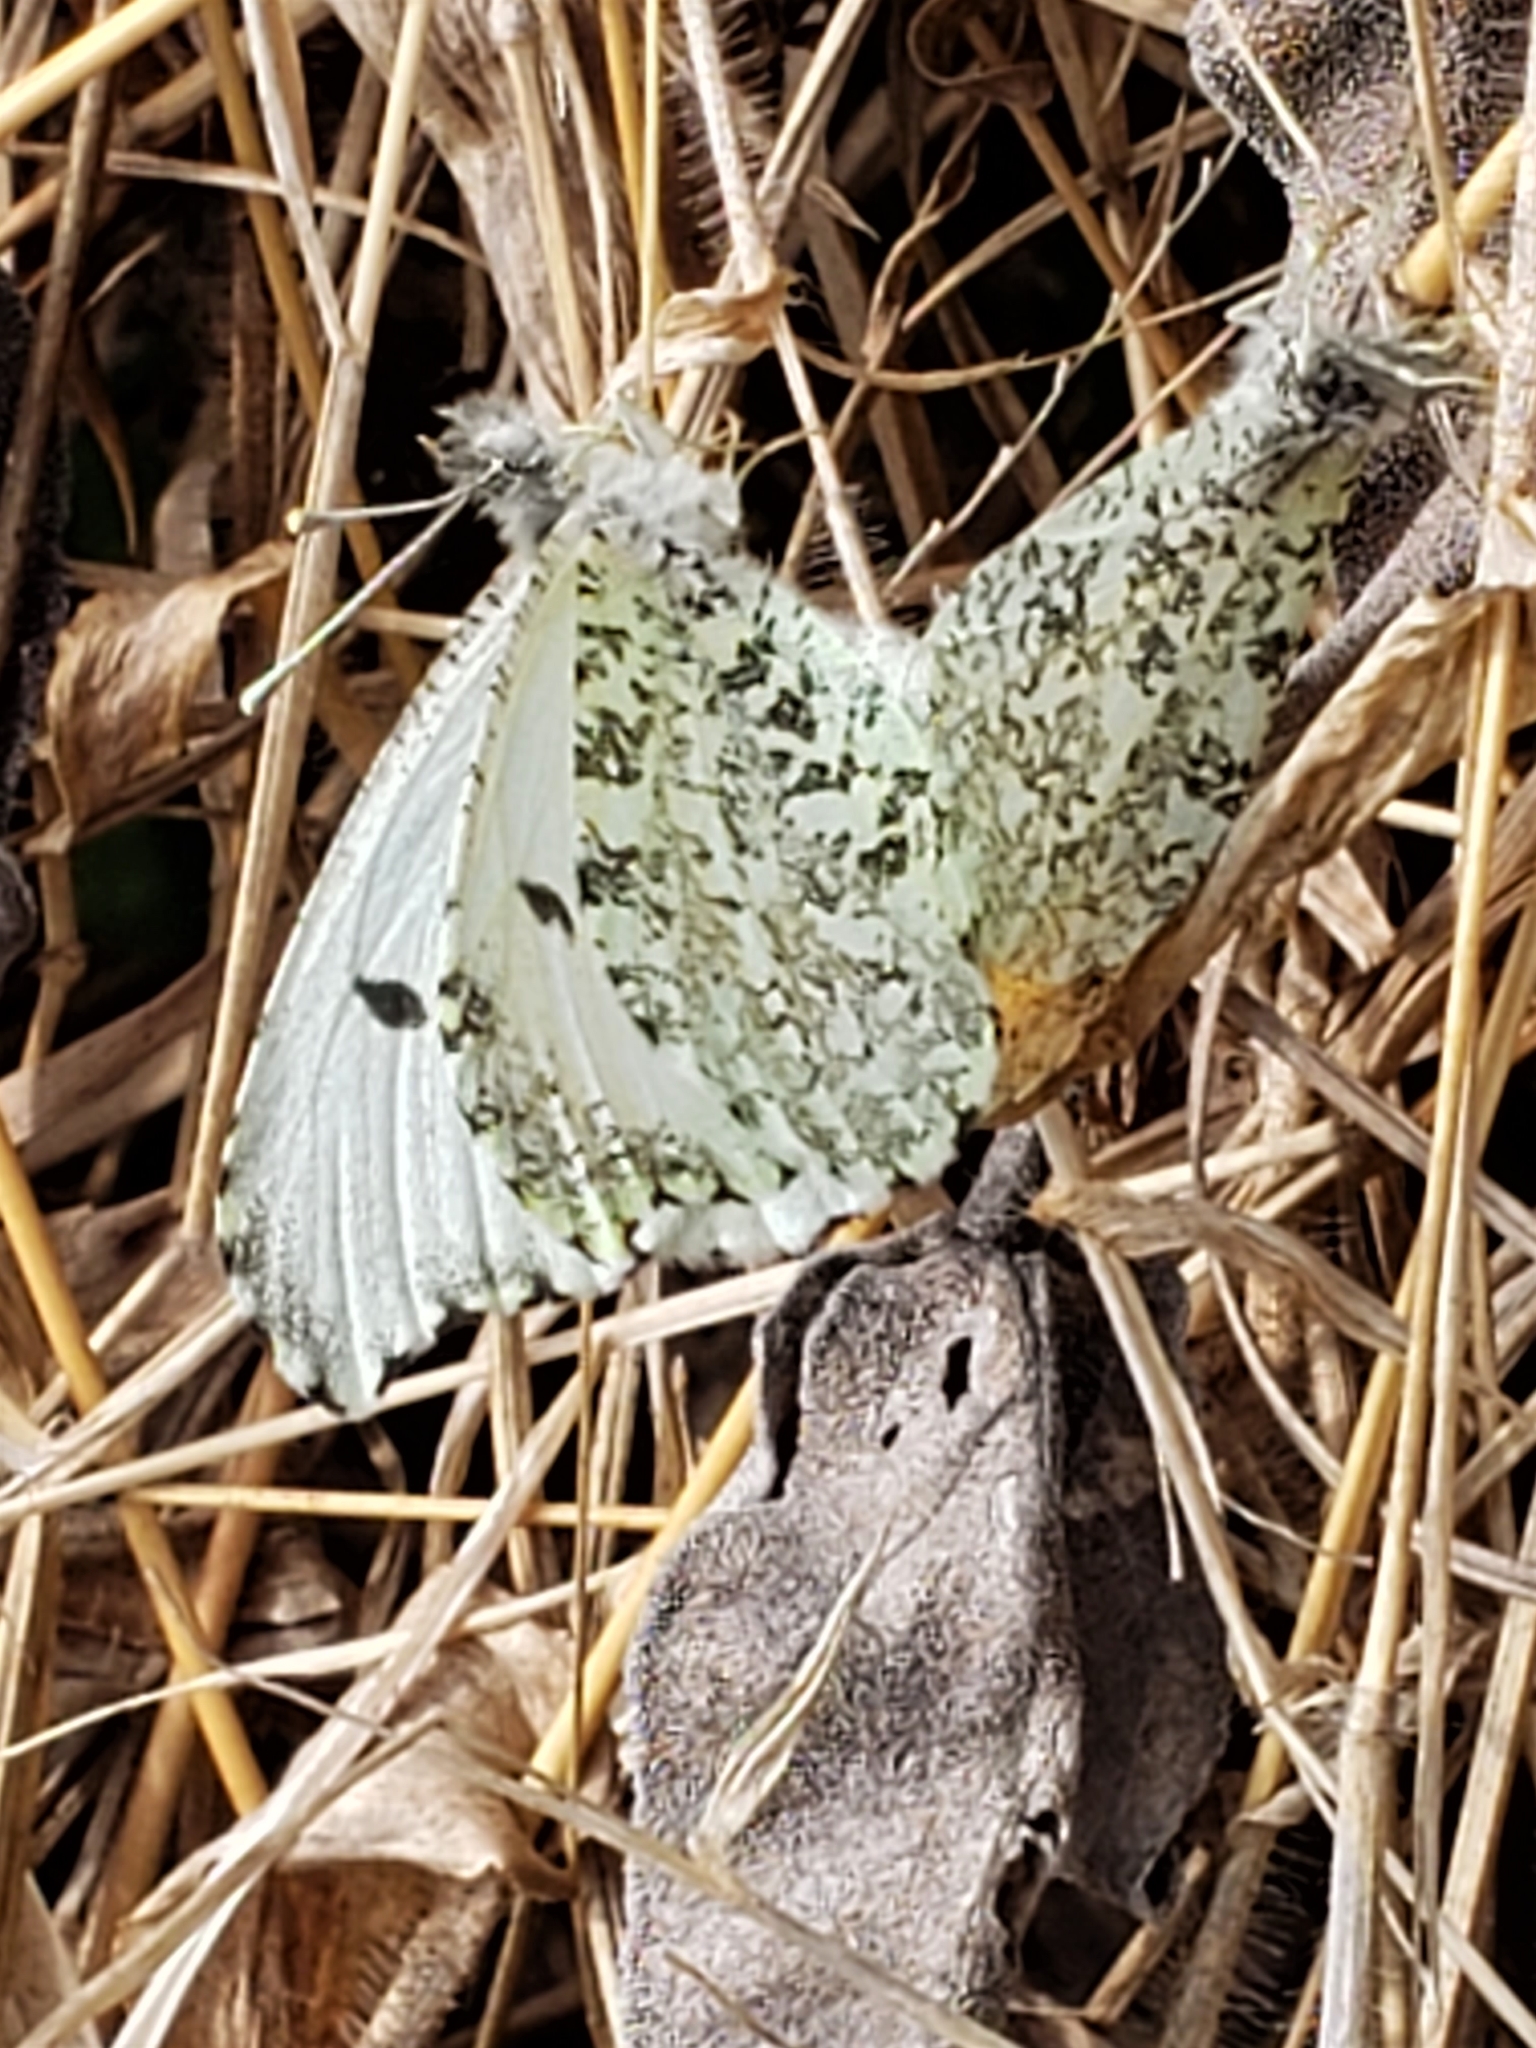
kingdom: Animalia
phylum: Arthropoda
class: Insecta
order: Lepidoptera
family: Pieridae
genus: Anthocharis
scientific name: Anthocharis midea
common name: Falcate orangetip
